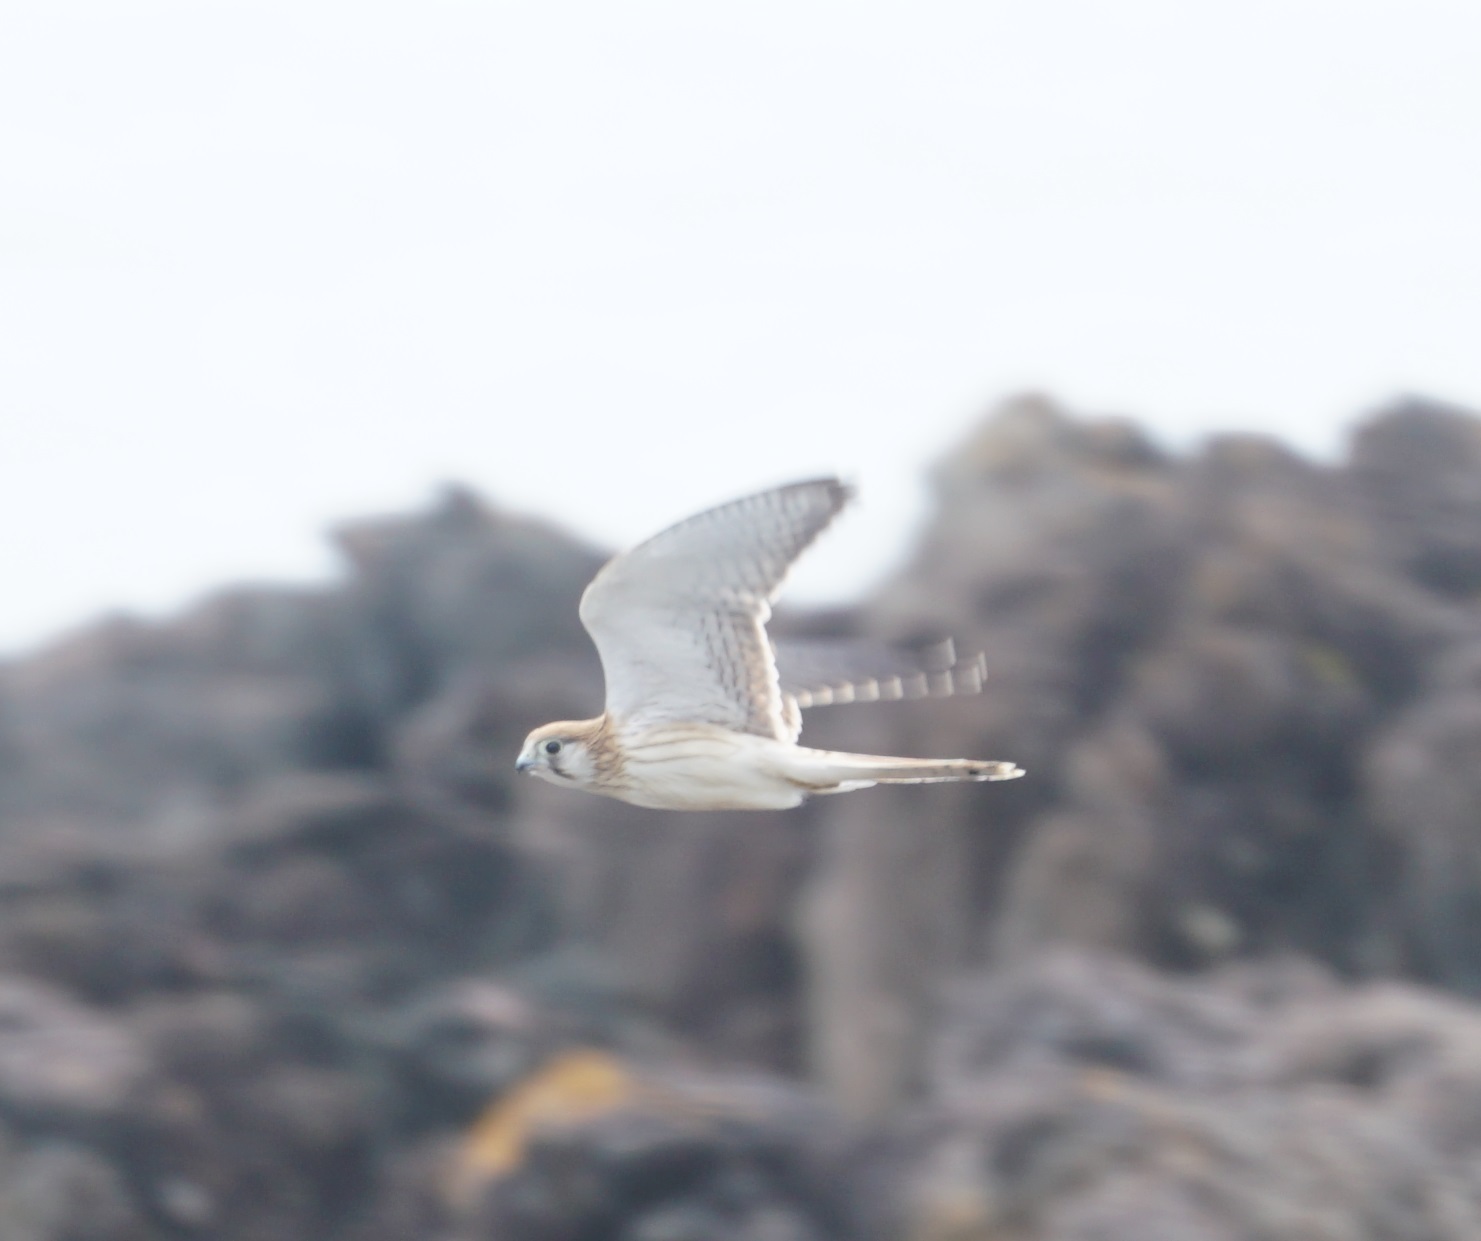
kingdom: Animalia
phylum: Chordata
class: Aves
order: Falconiformes
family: Falconidae
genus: Falco
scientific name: Falco cenchroides
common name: Nankeen kestrel
